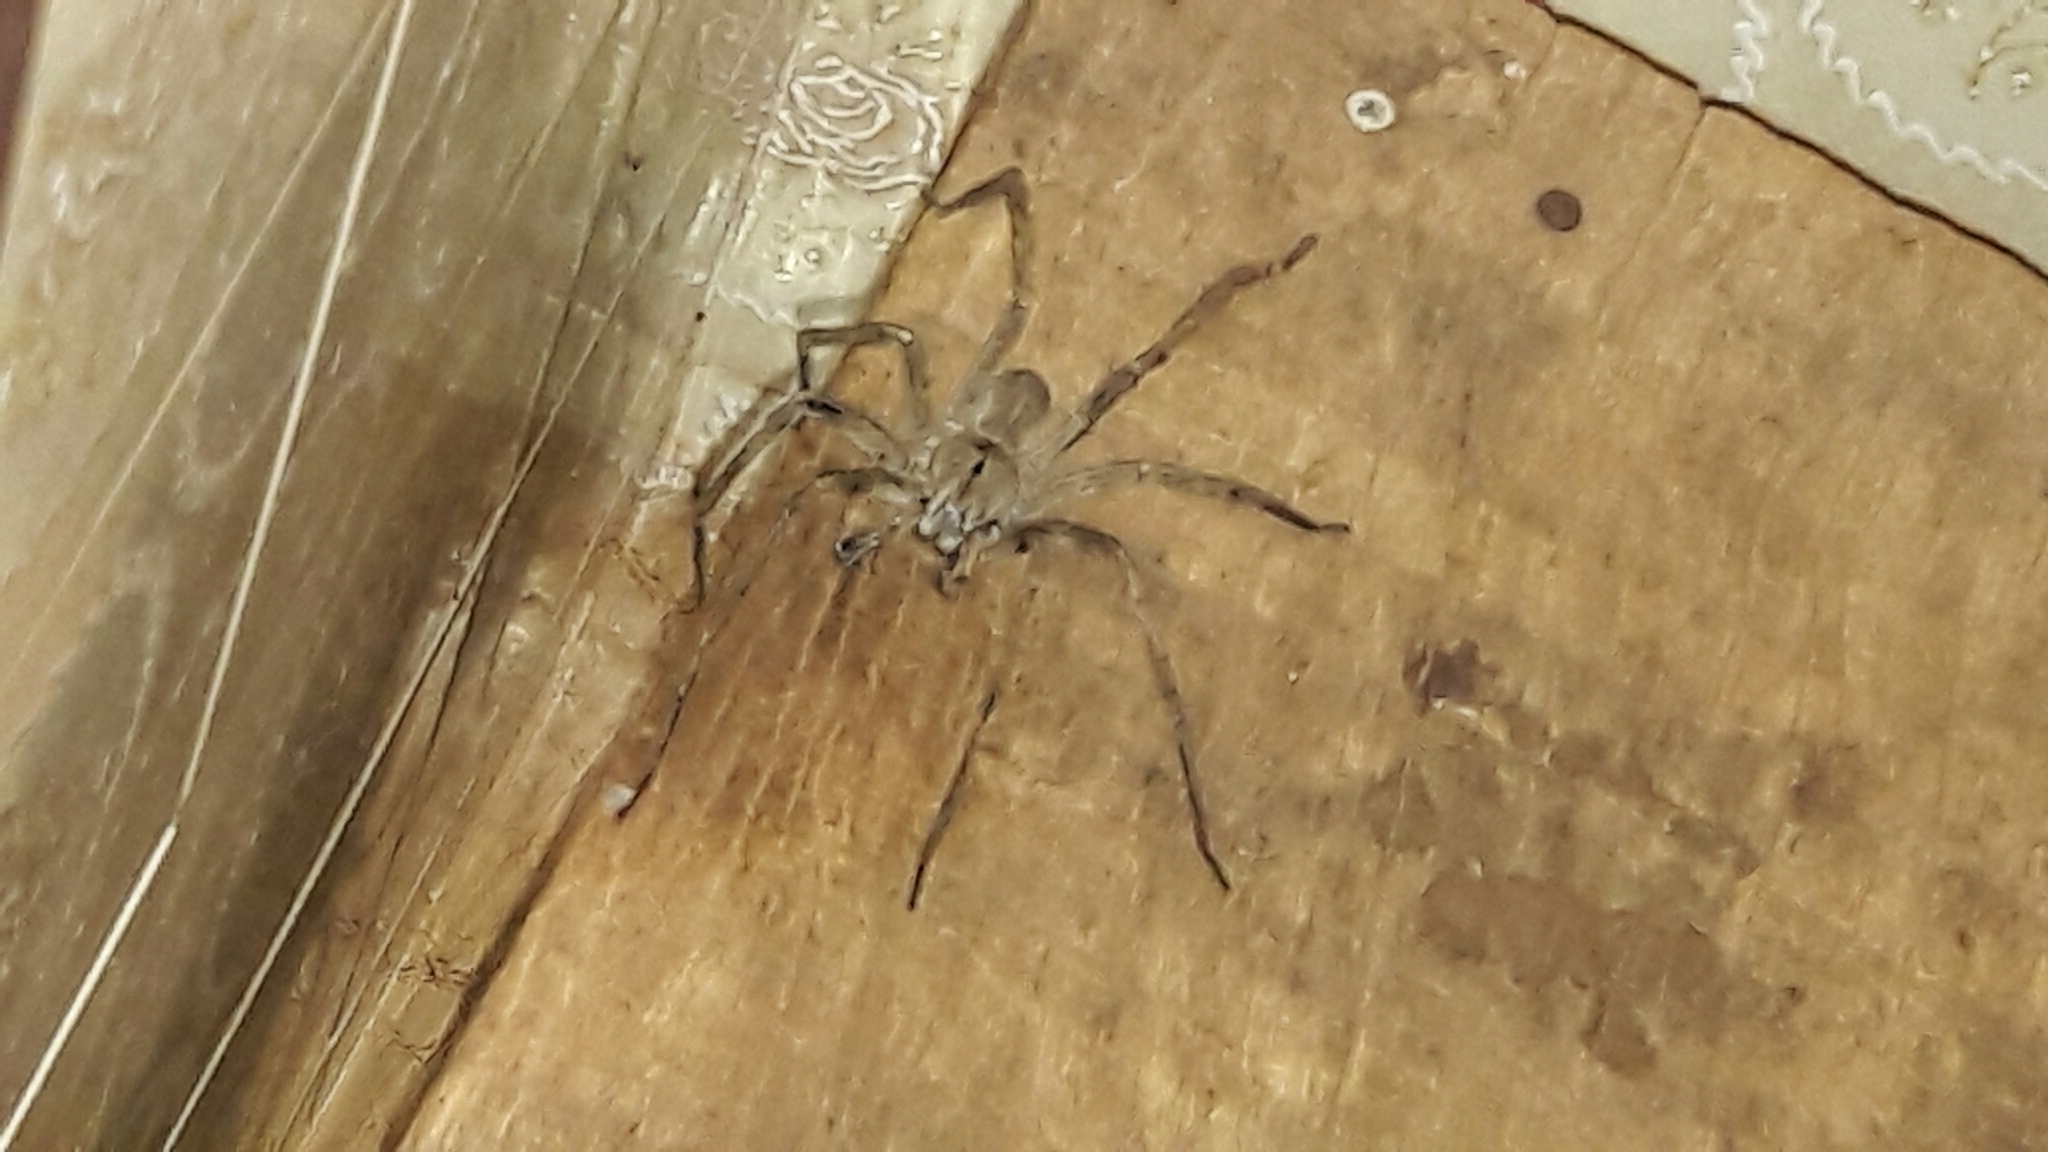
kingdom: Animalia
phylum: Arthropoda
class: Arachnida
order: Araneae
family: Ctenidae
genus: Phoneutria
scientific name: Phoneutria eickstedtae
